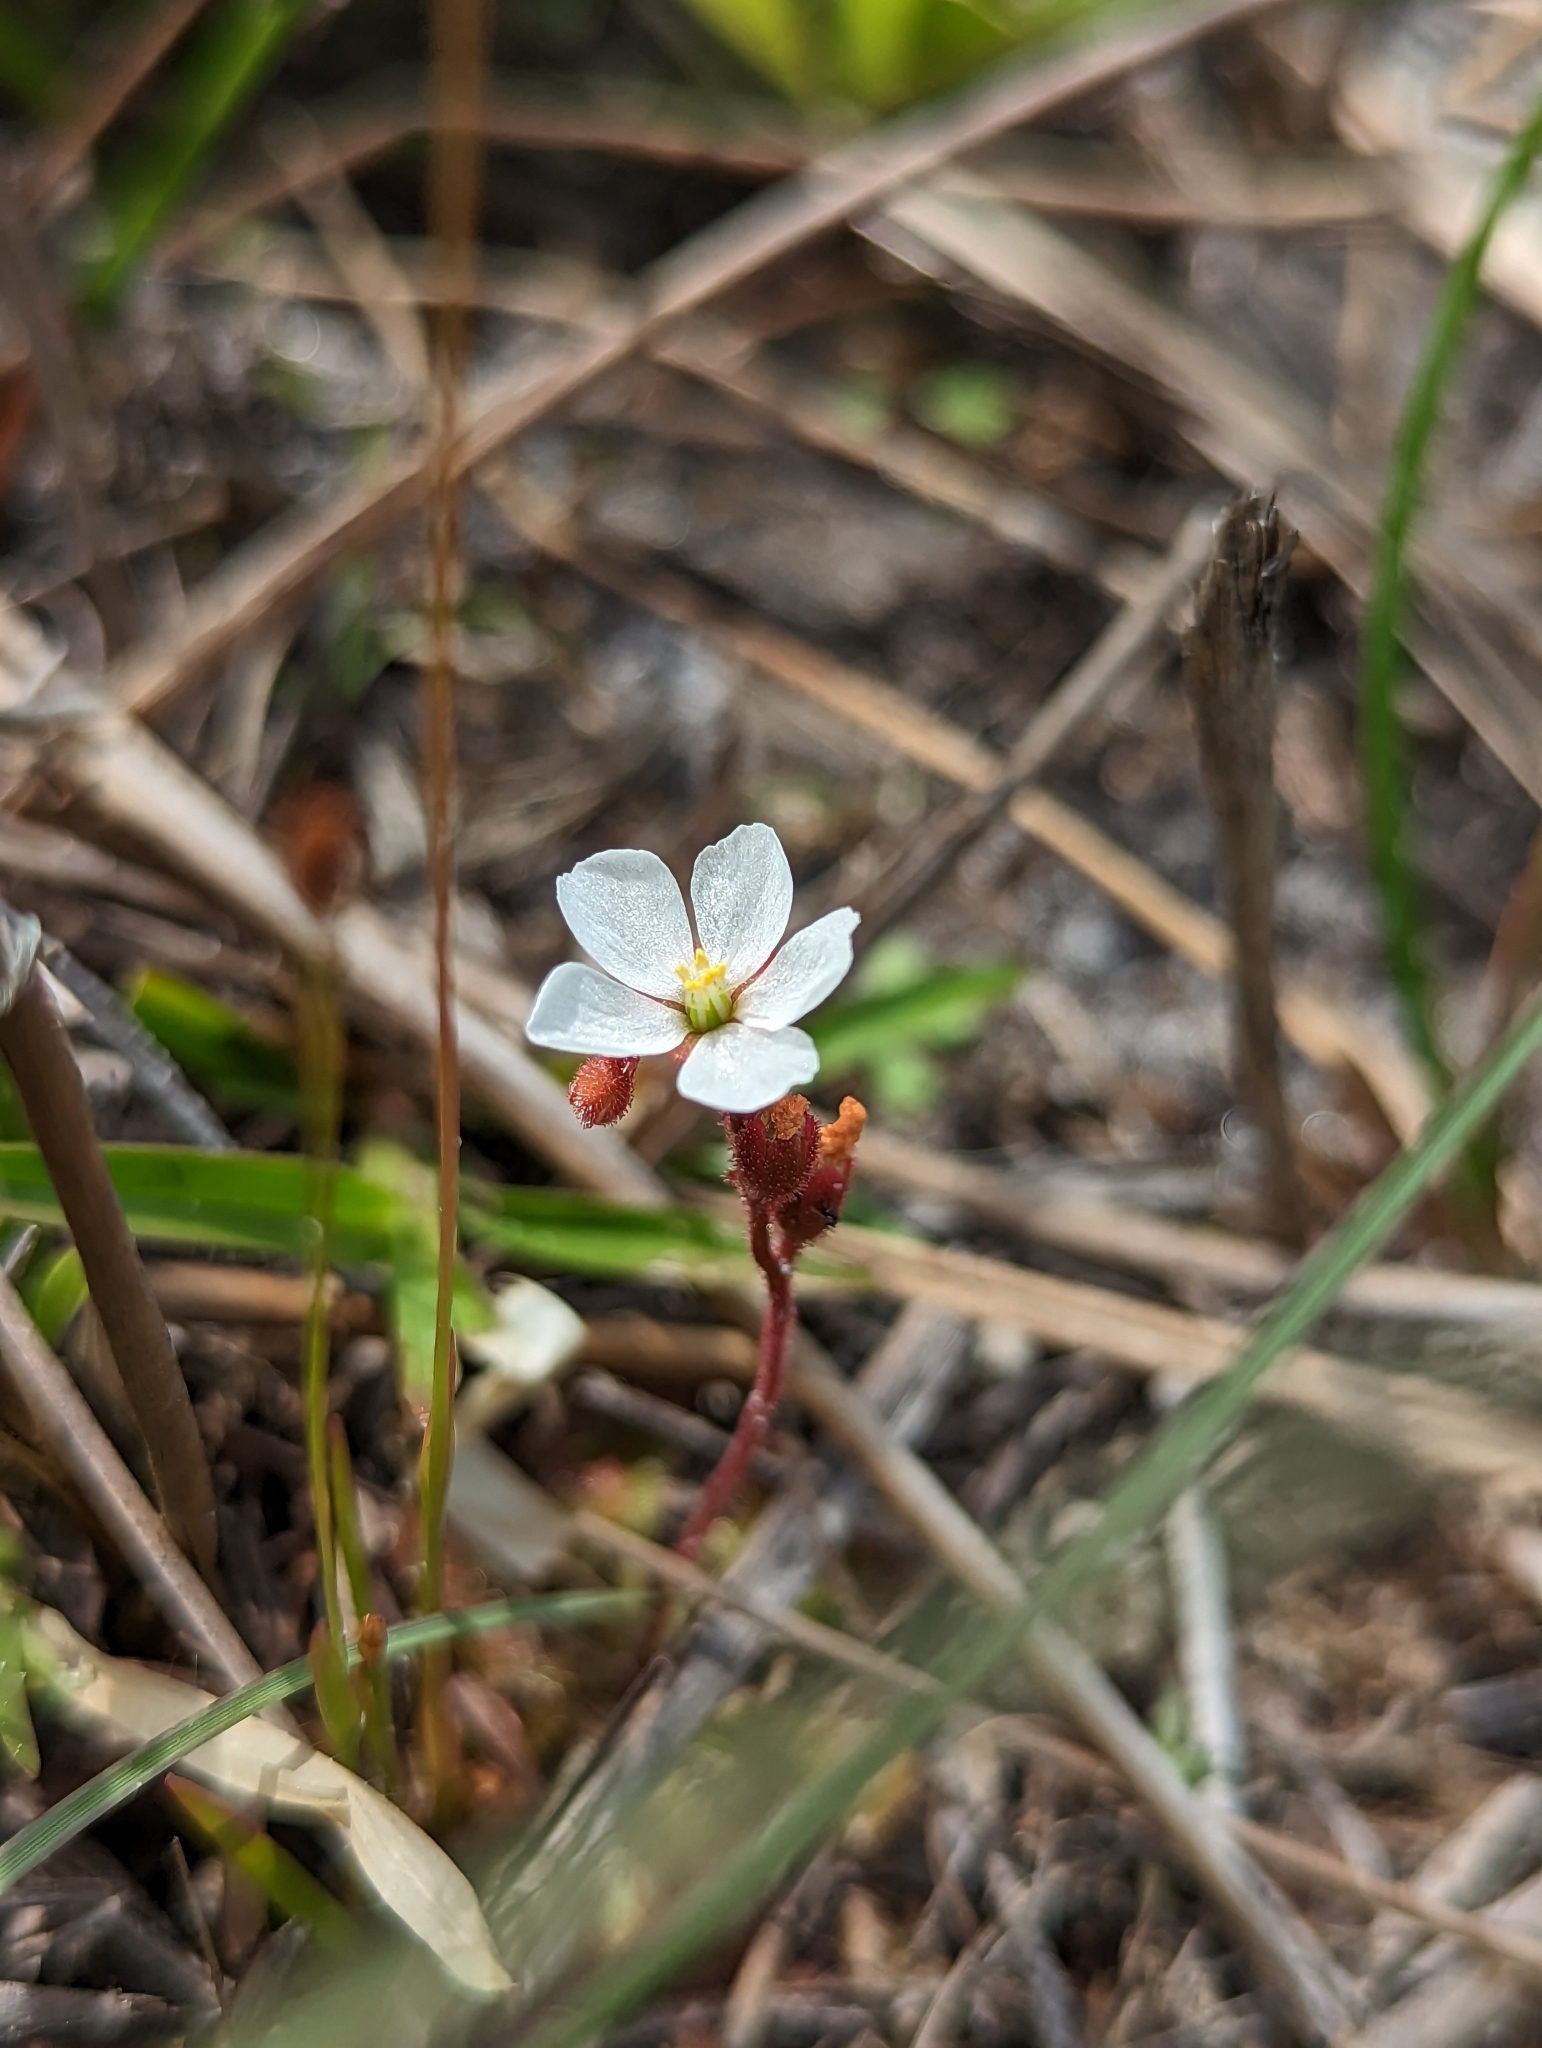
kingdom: Plantae
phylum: Tracheophyta
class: Magnoliopsida
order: Caryophyllales
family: Droseraceae
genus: Drosera
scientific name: Drosera brevifolia
